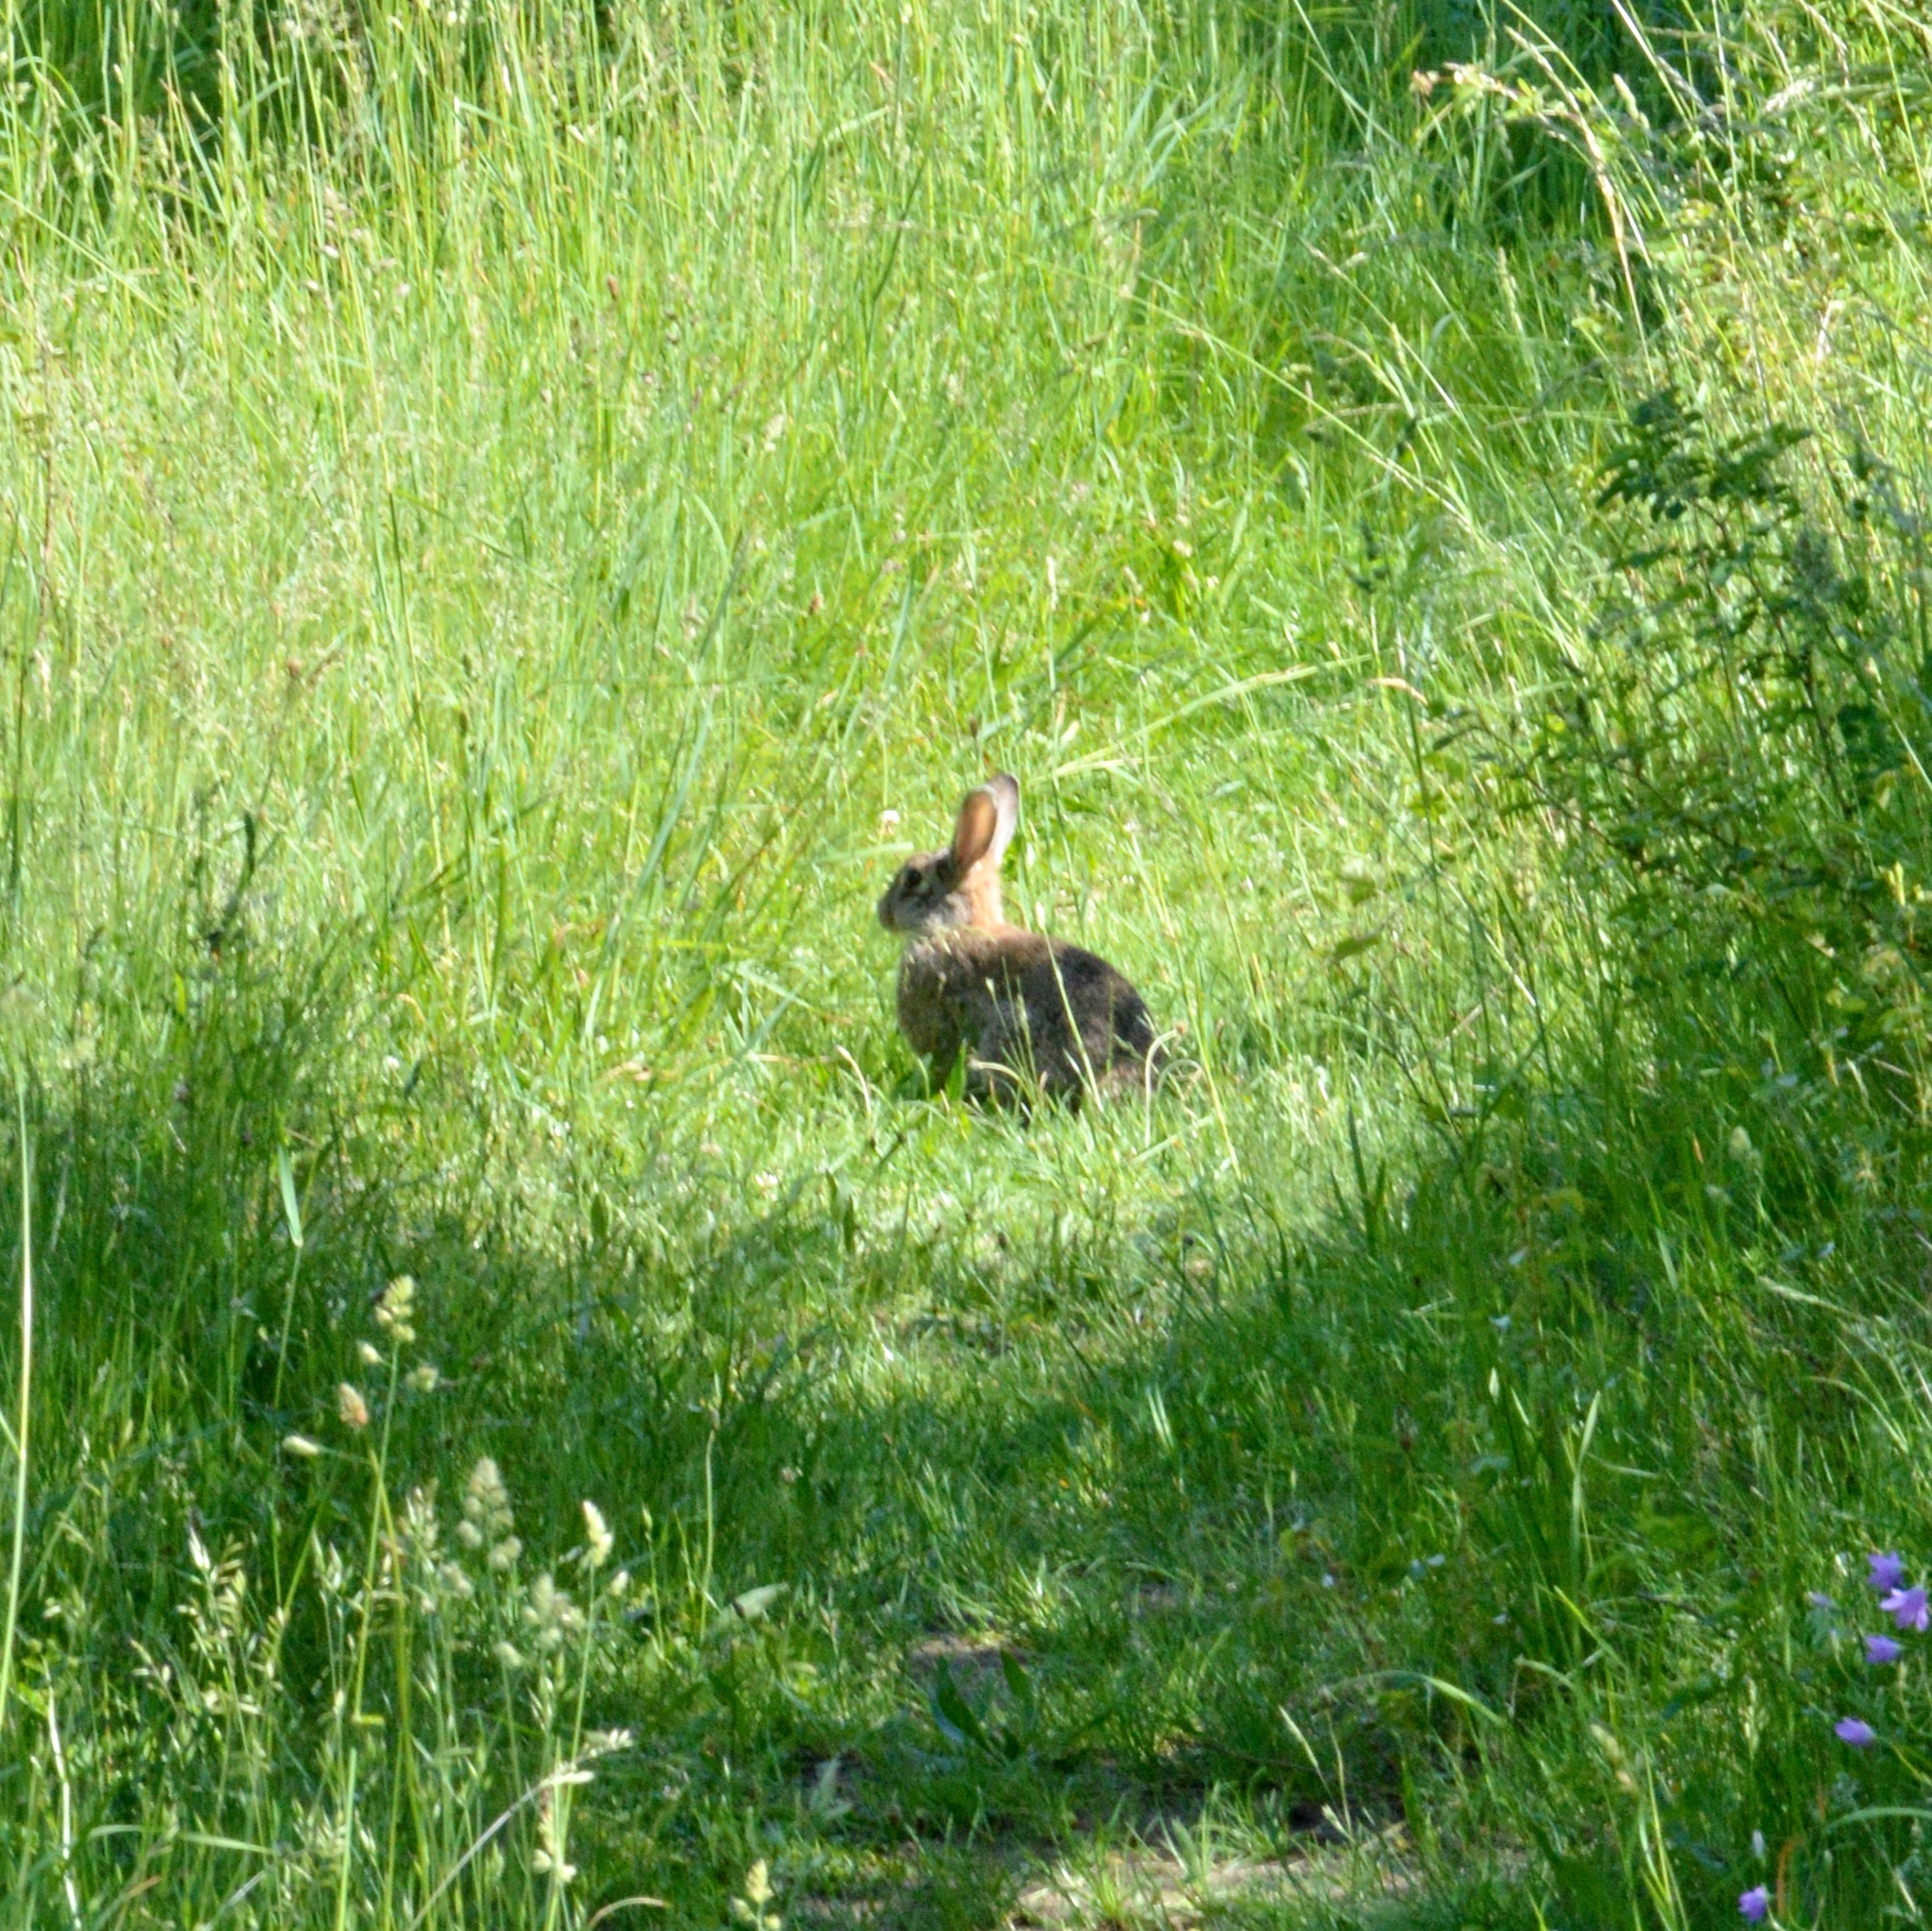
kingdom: Animalia
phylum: Chordata
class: Mammalia
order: Lagomorpha
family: Leporidae
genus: Oryctolagus
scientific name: Oryctolagus cuniculus
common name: European rabbit
